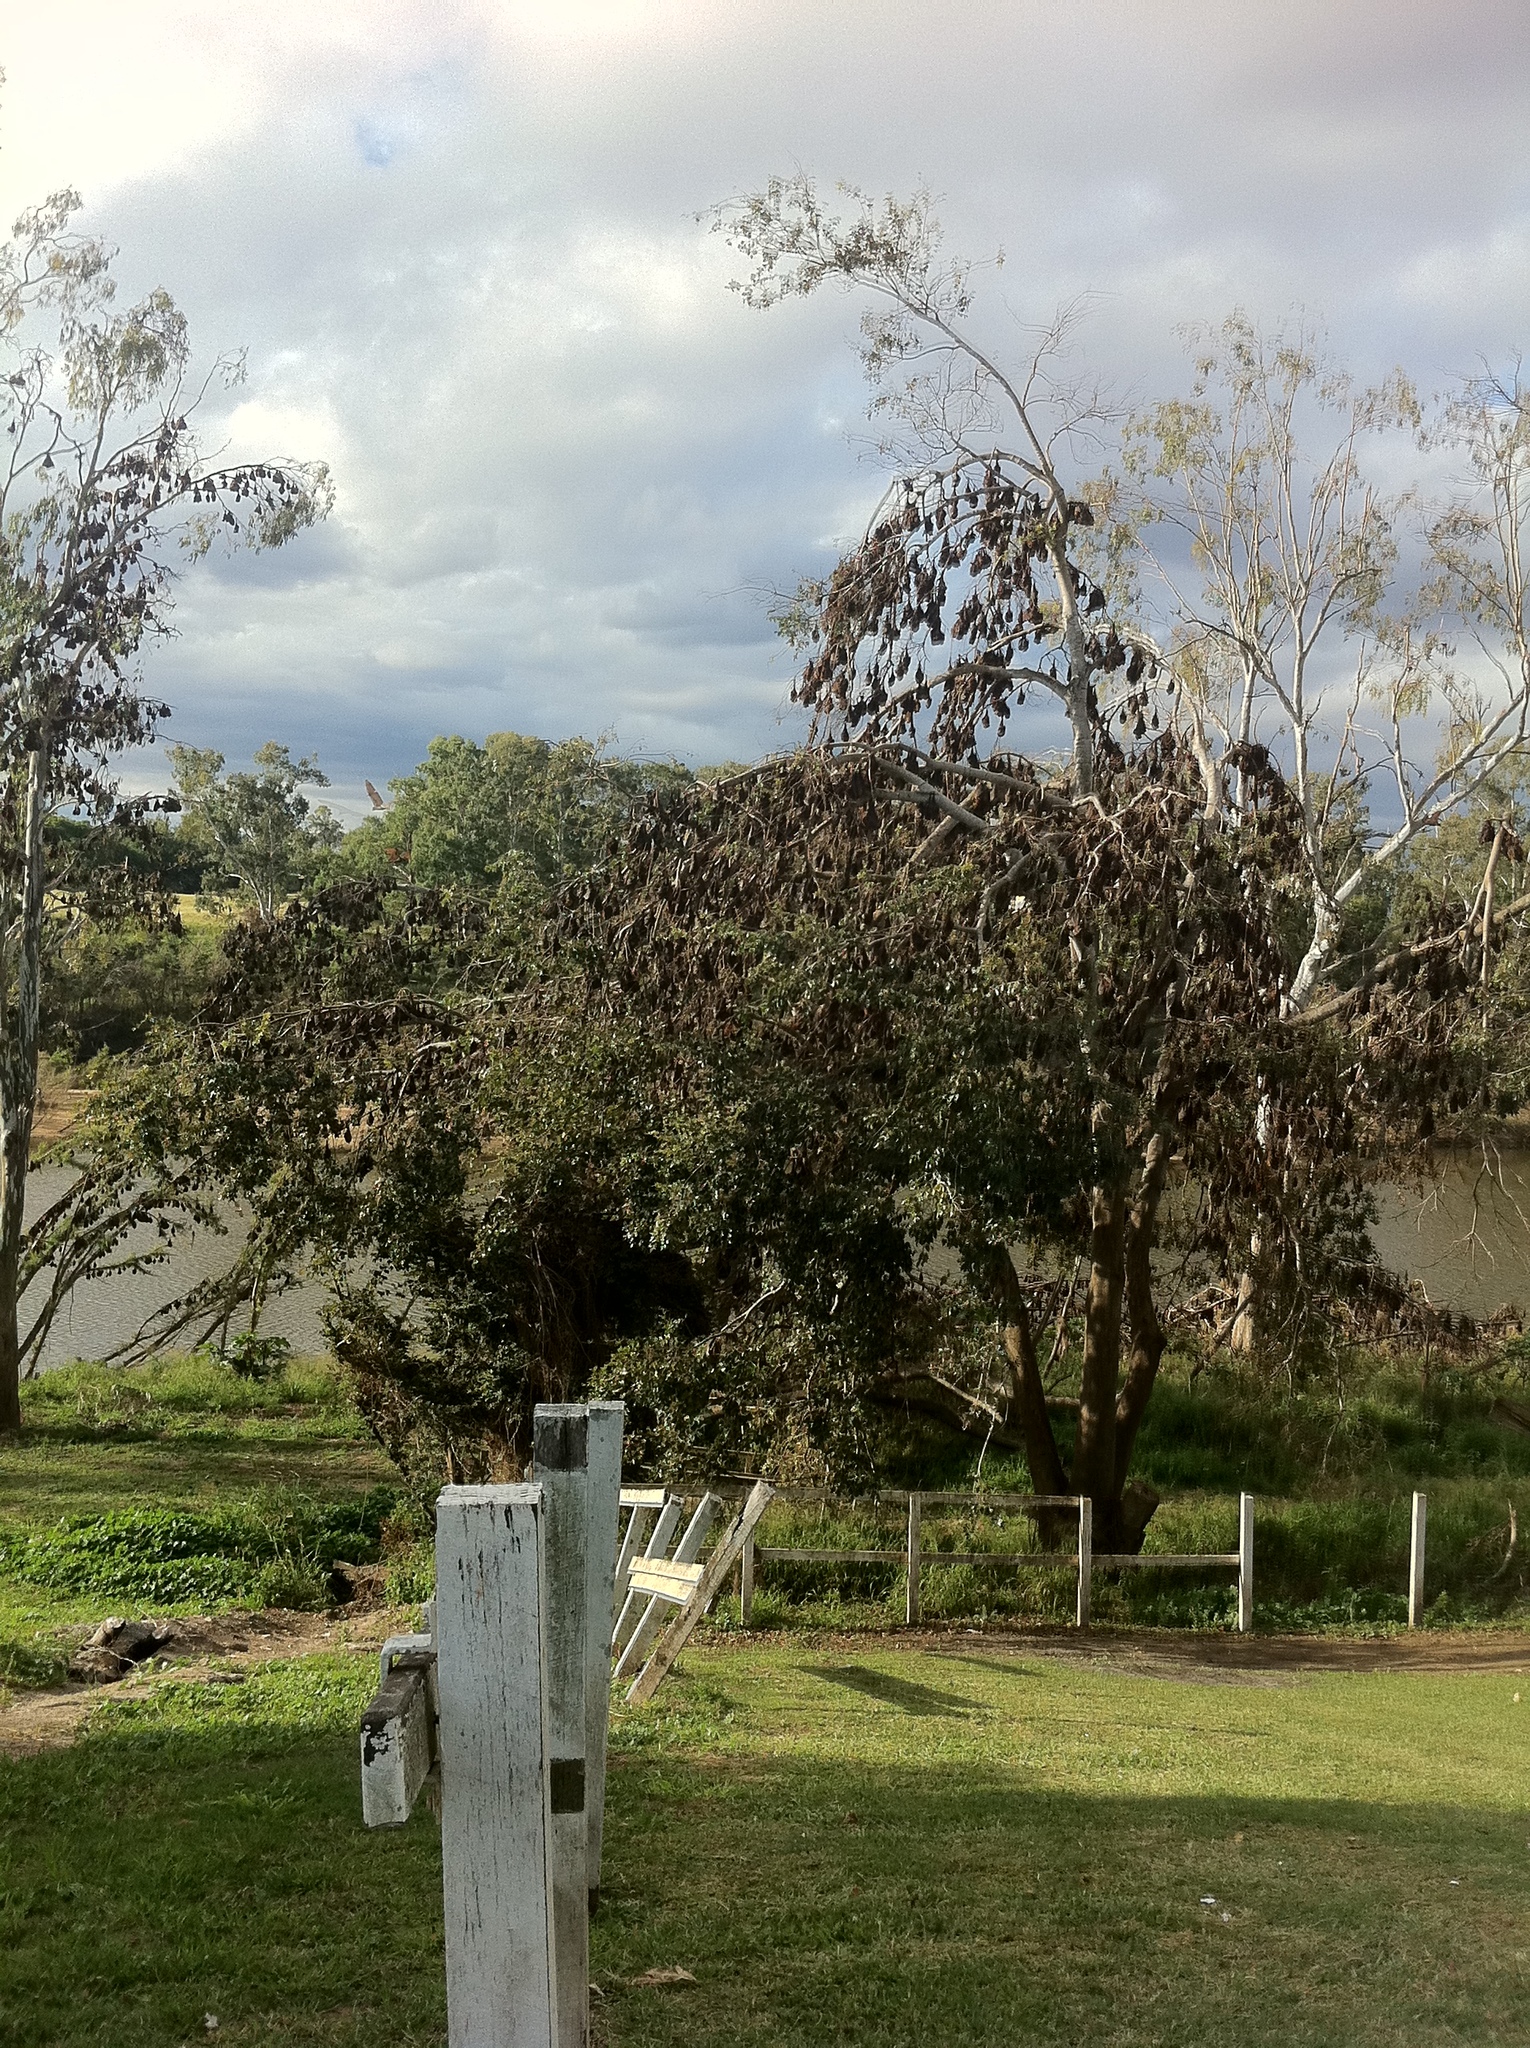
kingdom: Animalia
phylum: Chordata
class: Mammalia
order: Chiroptera
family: Pteropodidae
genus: Pteropus
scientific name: Pteropus scapulatus
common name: Little red flying fox
